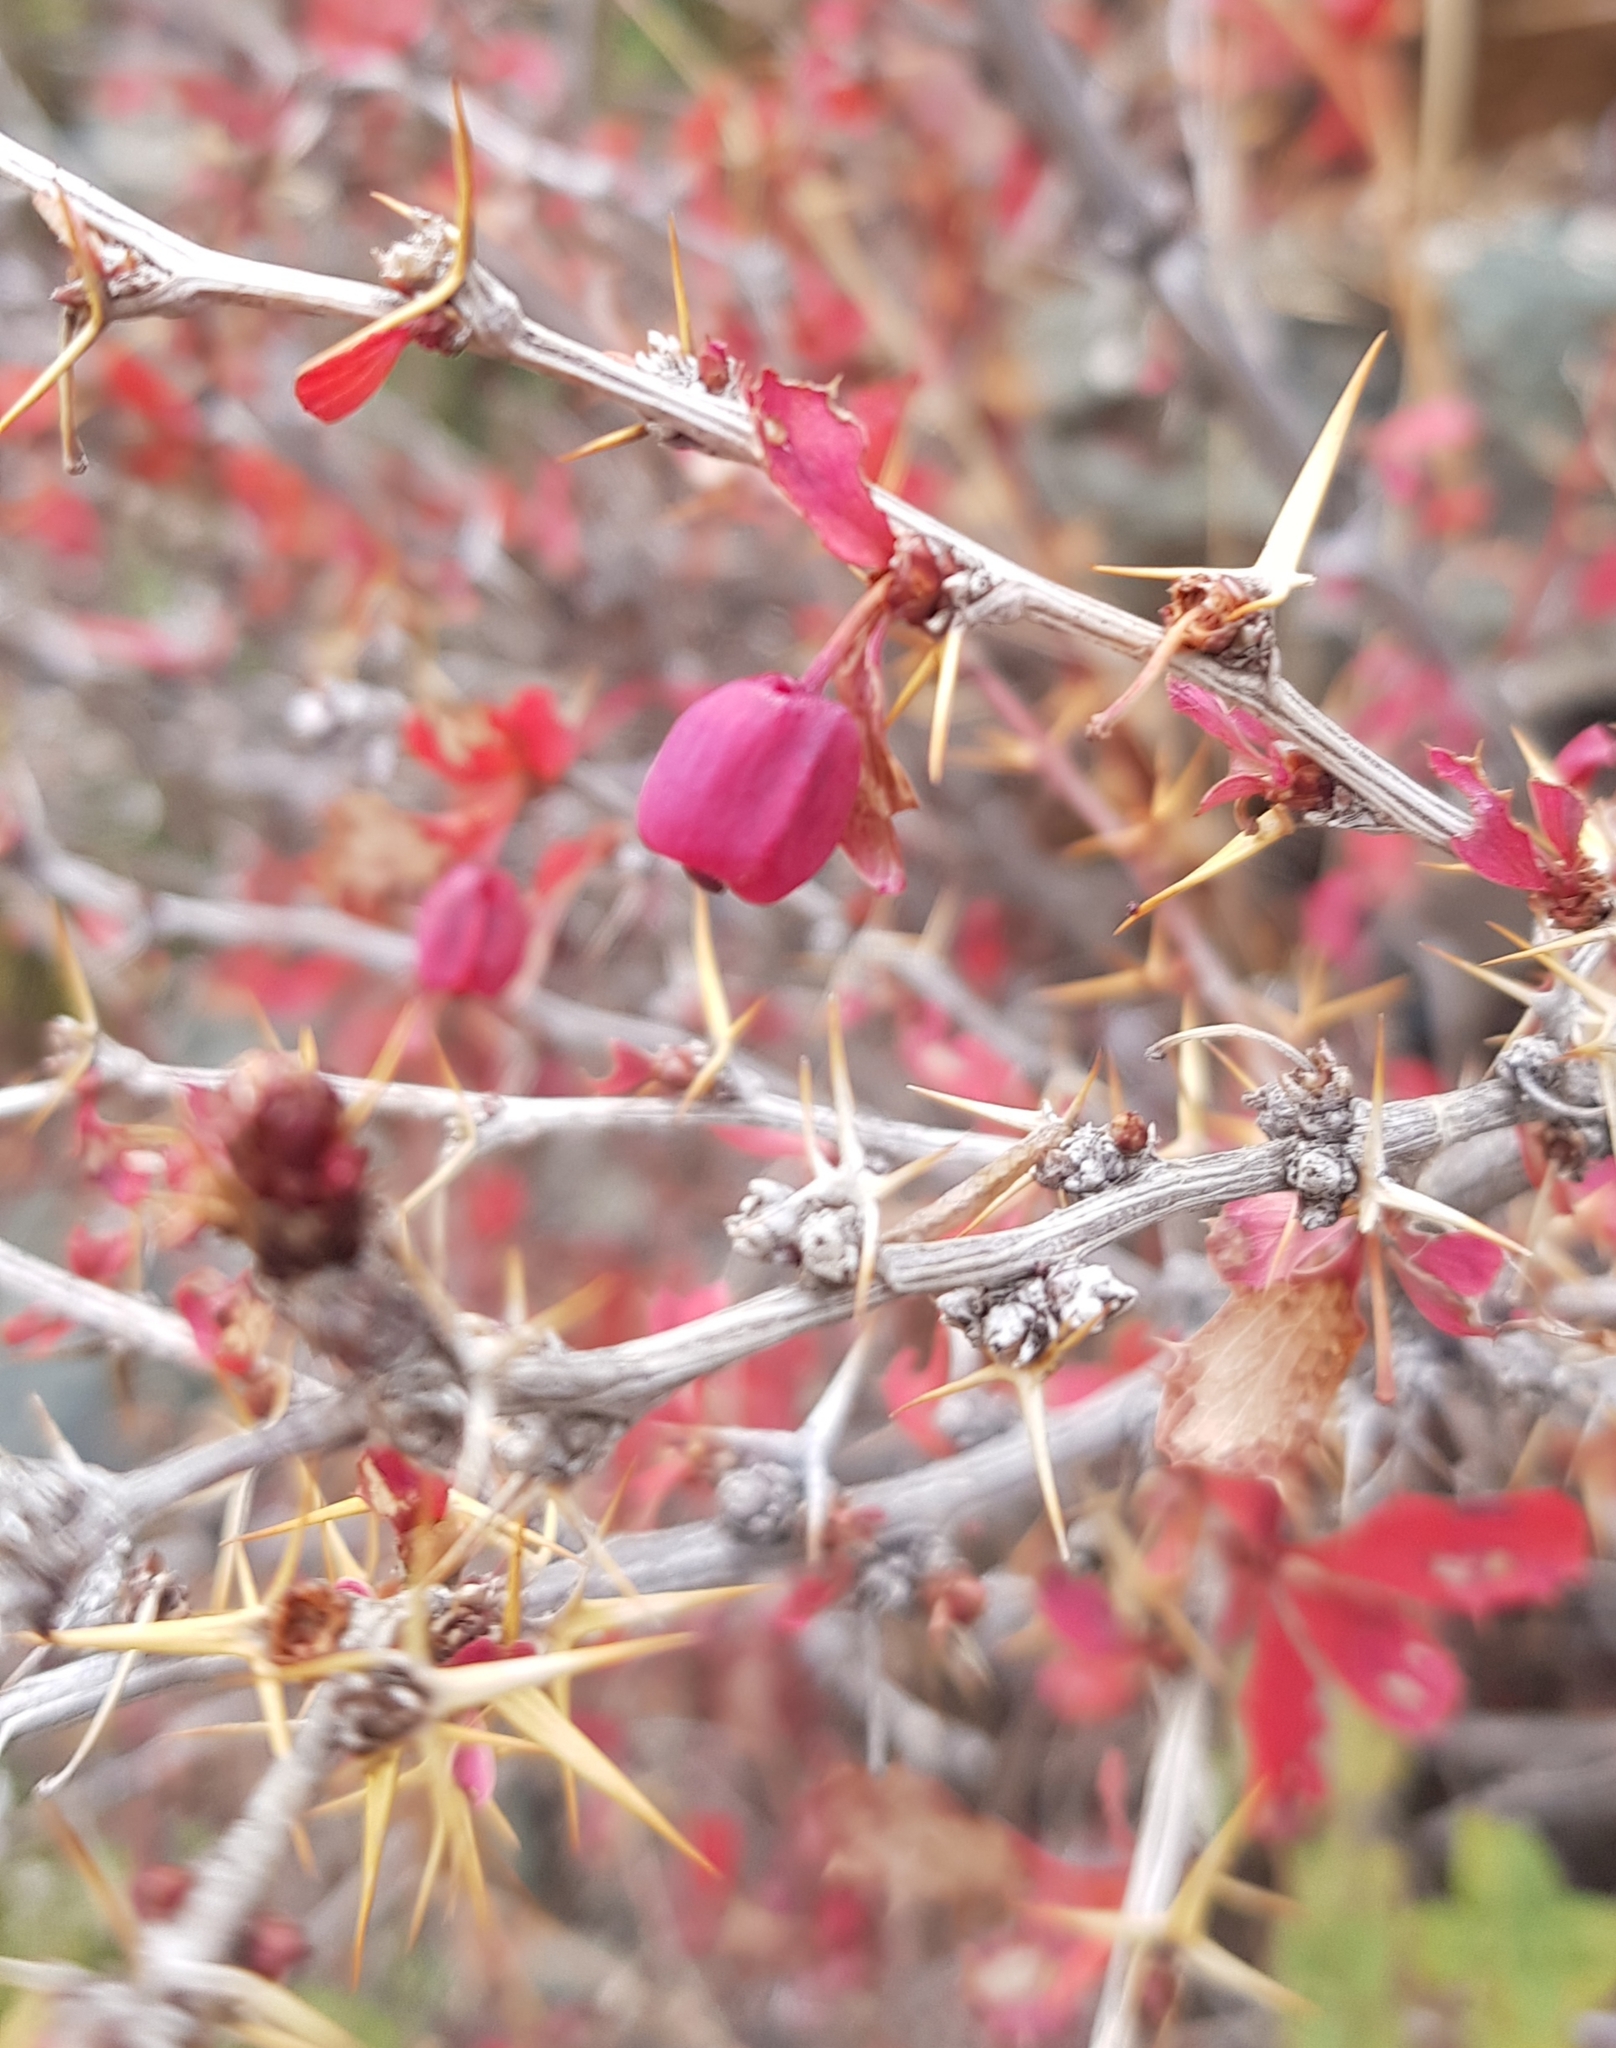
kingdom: Plantae
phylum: Tracheophyta
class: Magnoliopsida
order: Ranunculales
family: Berberidaceae
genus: Berberis
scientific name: Berberis sibirica
